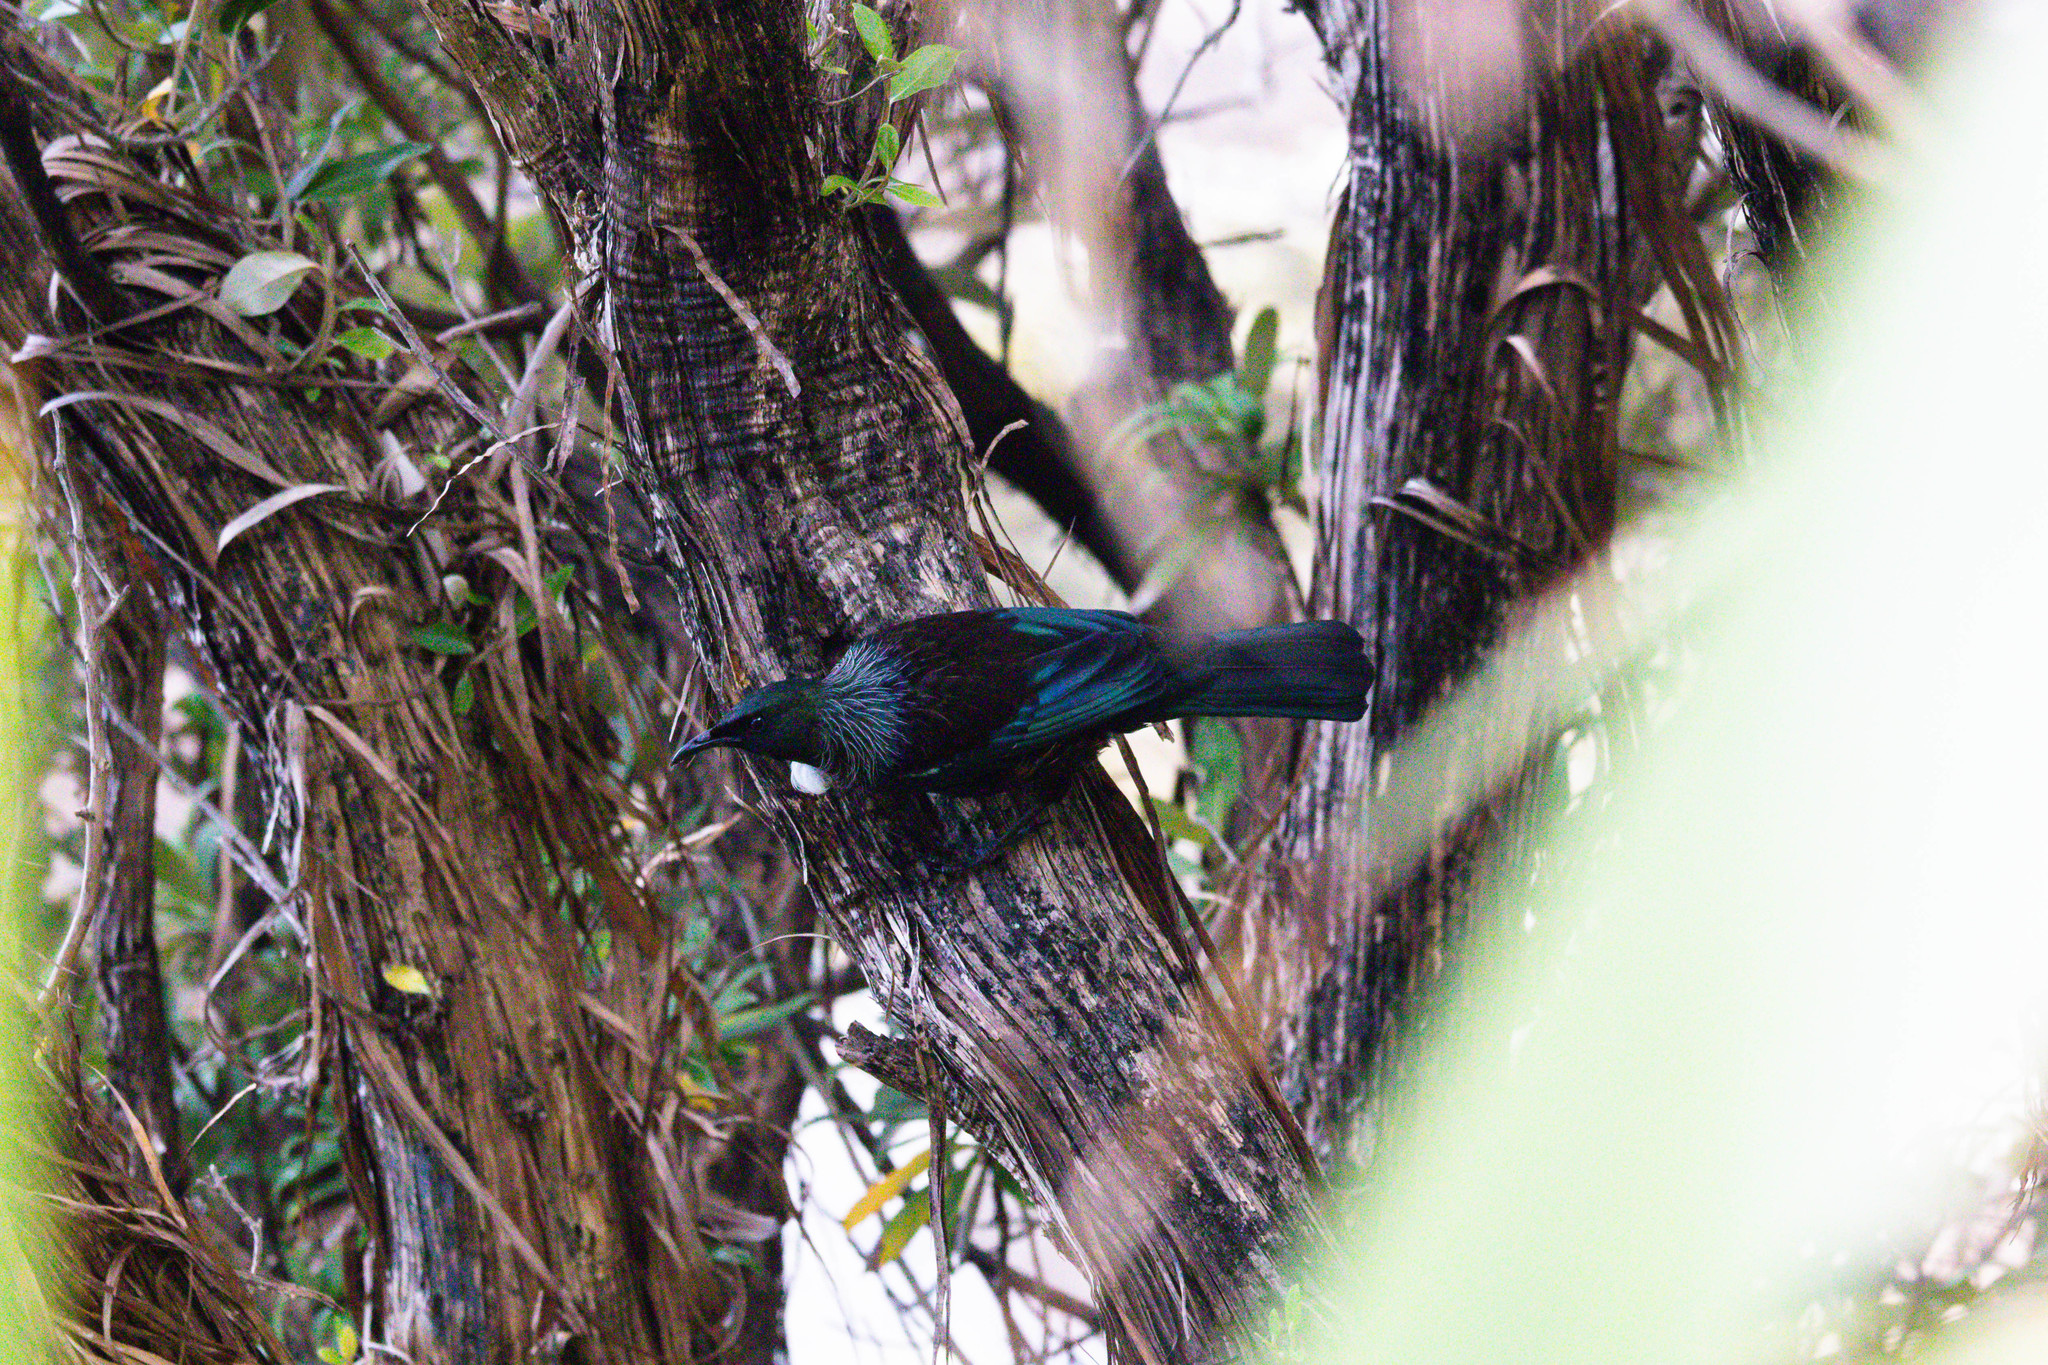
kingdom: Animalia
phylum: Chordata
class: Aves
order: Passeriformes
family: Meliphagidae
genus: Prosthemadera
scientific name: Prosthemadera novaeseelandiae
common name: Tui
